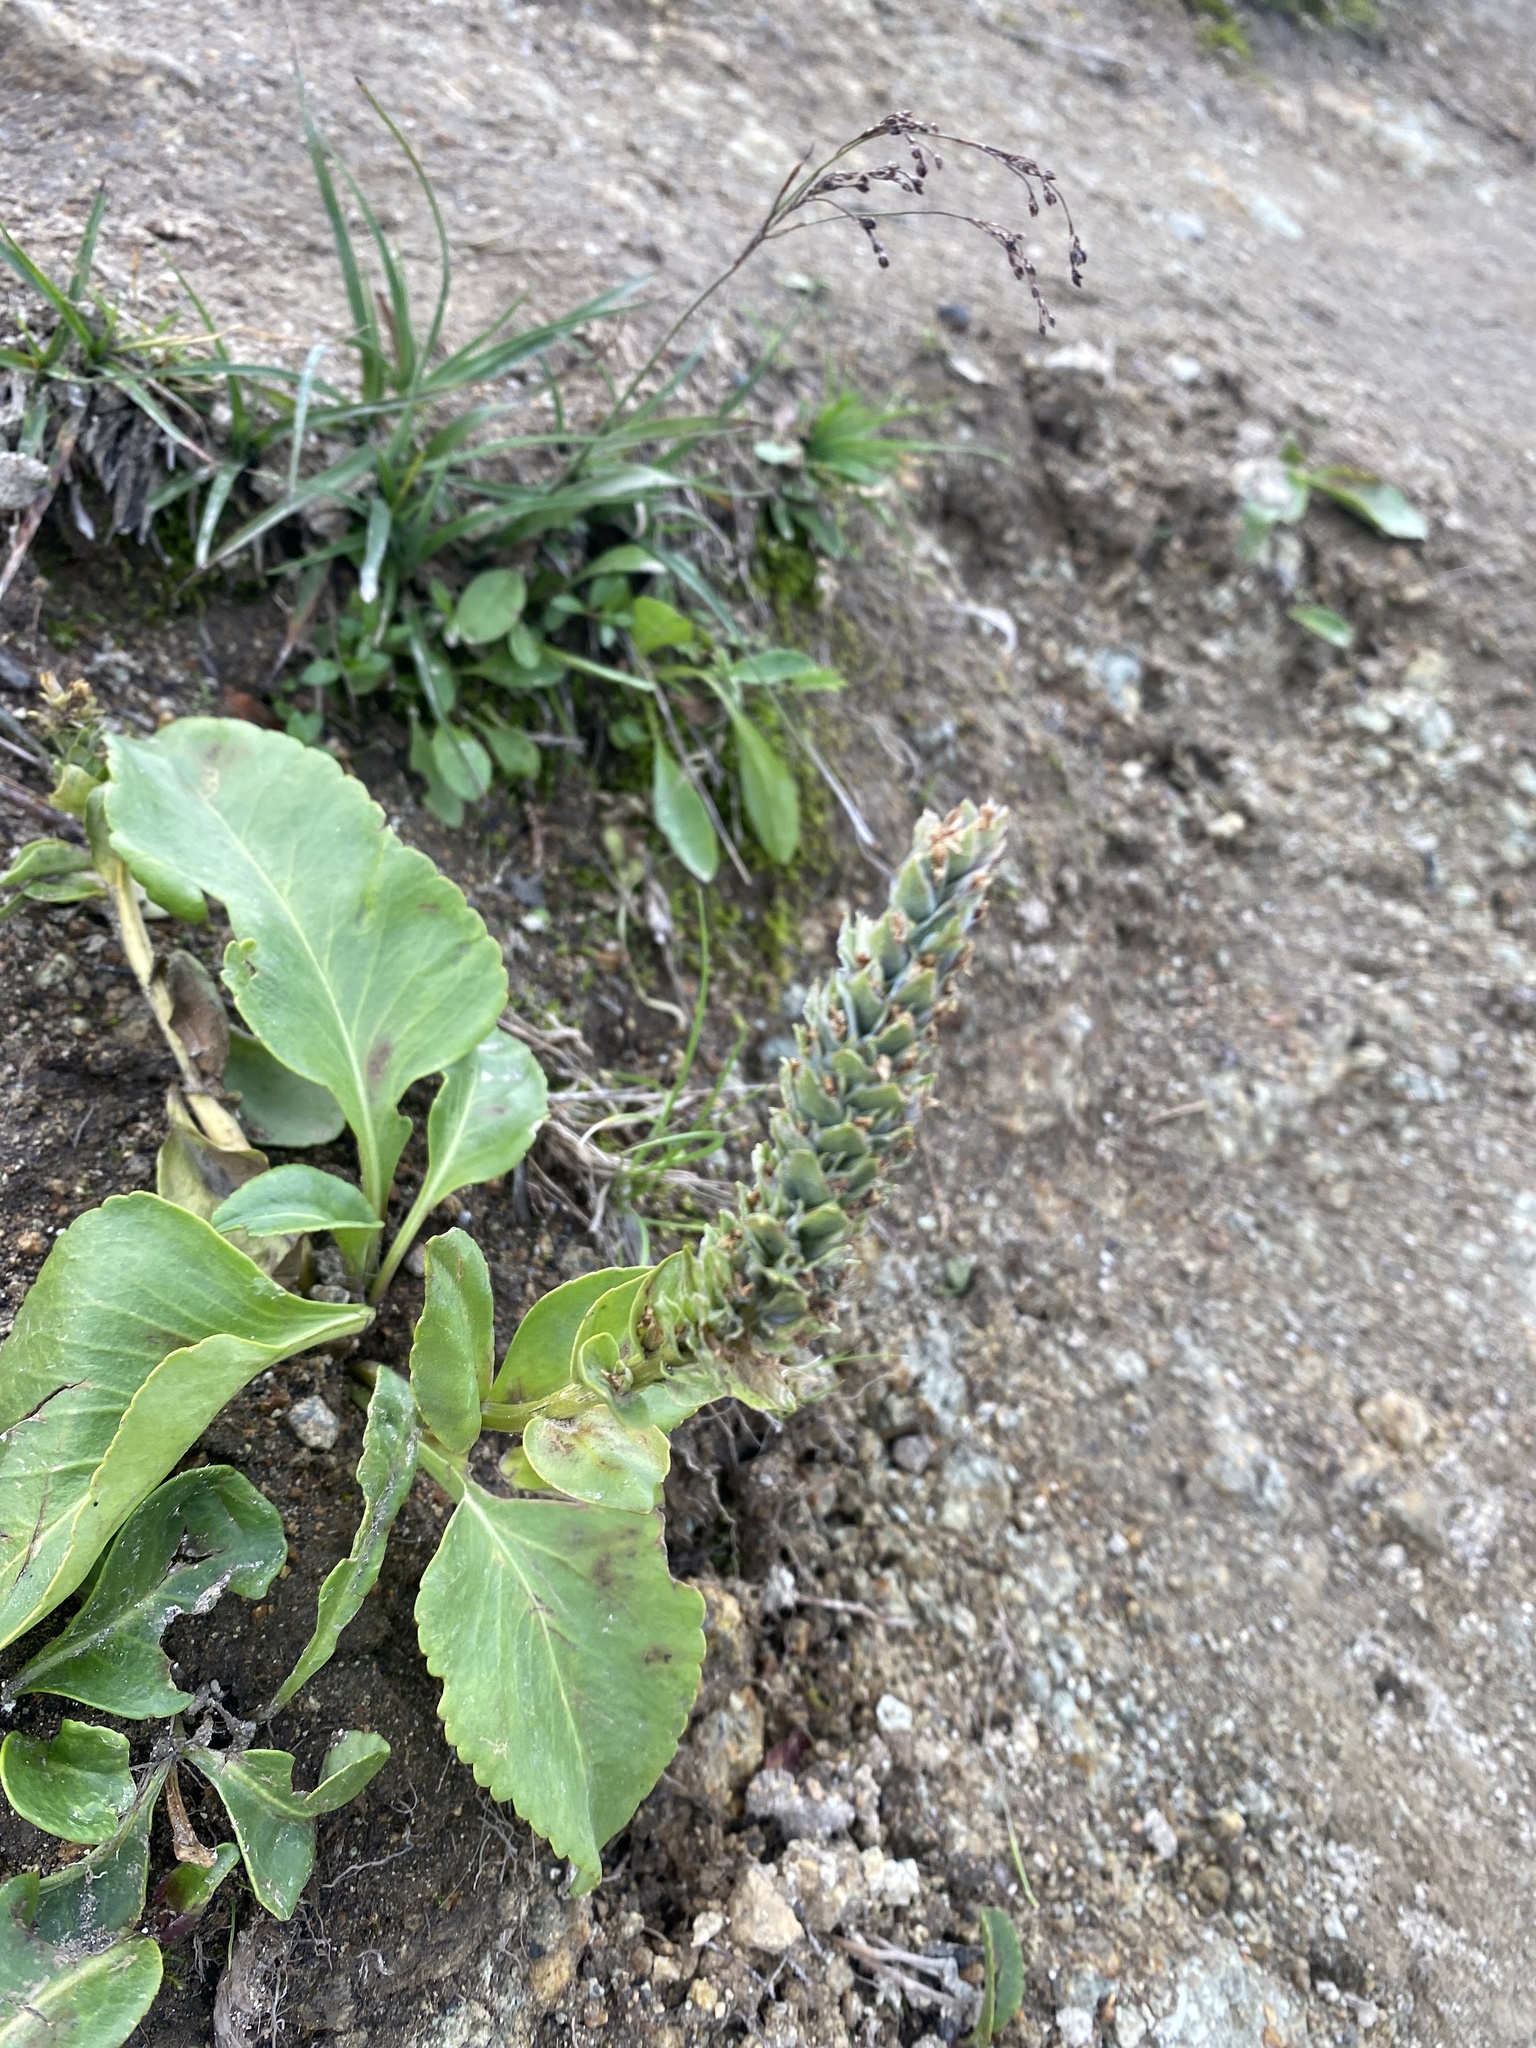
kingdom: Plantae
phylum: Tracheophyta
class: Magnoliopsida
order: Lamiales
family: Plantaginaceae
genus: Lagotis
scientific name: Lagotis glauca
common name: Glaucous weaselsnout
